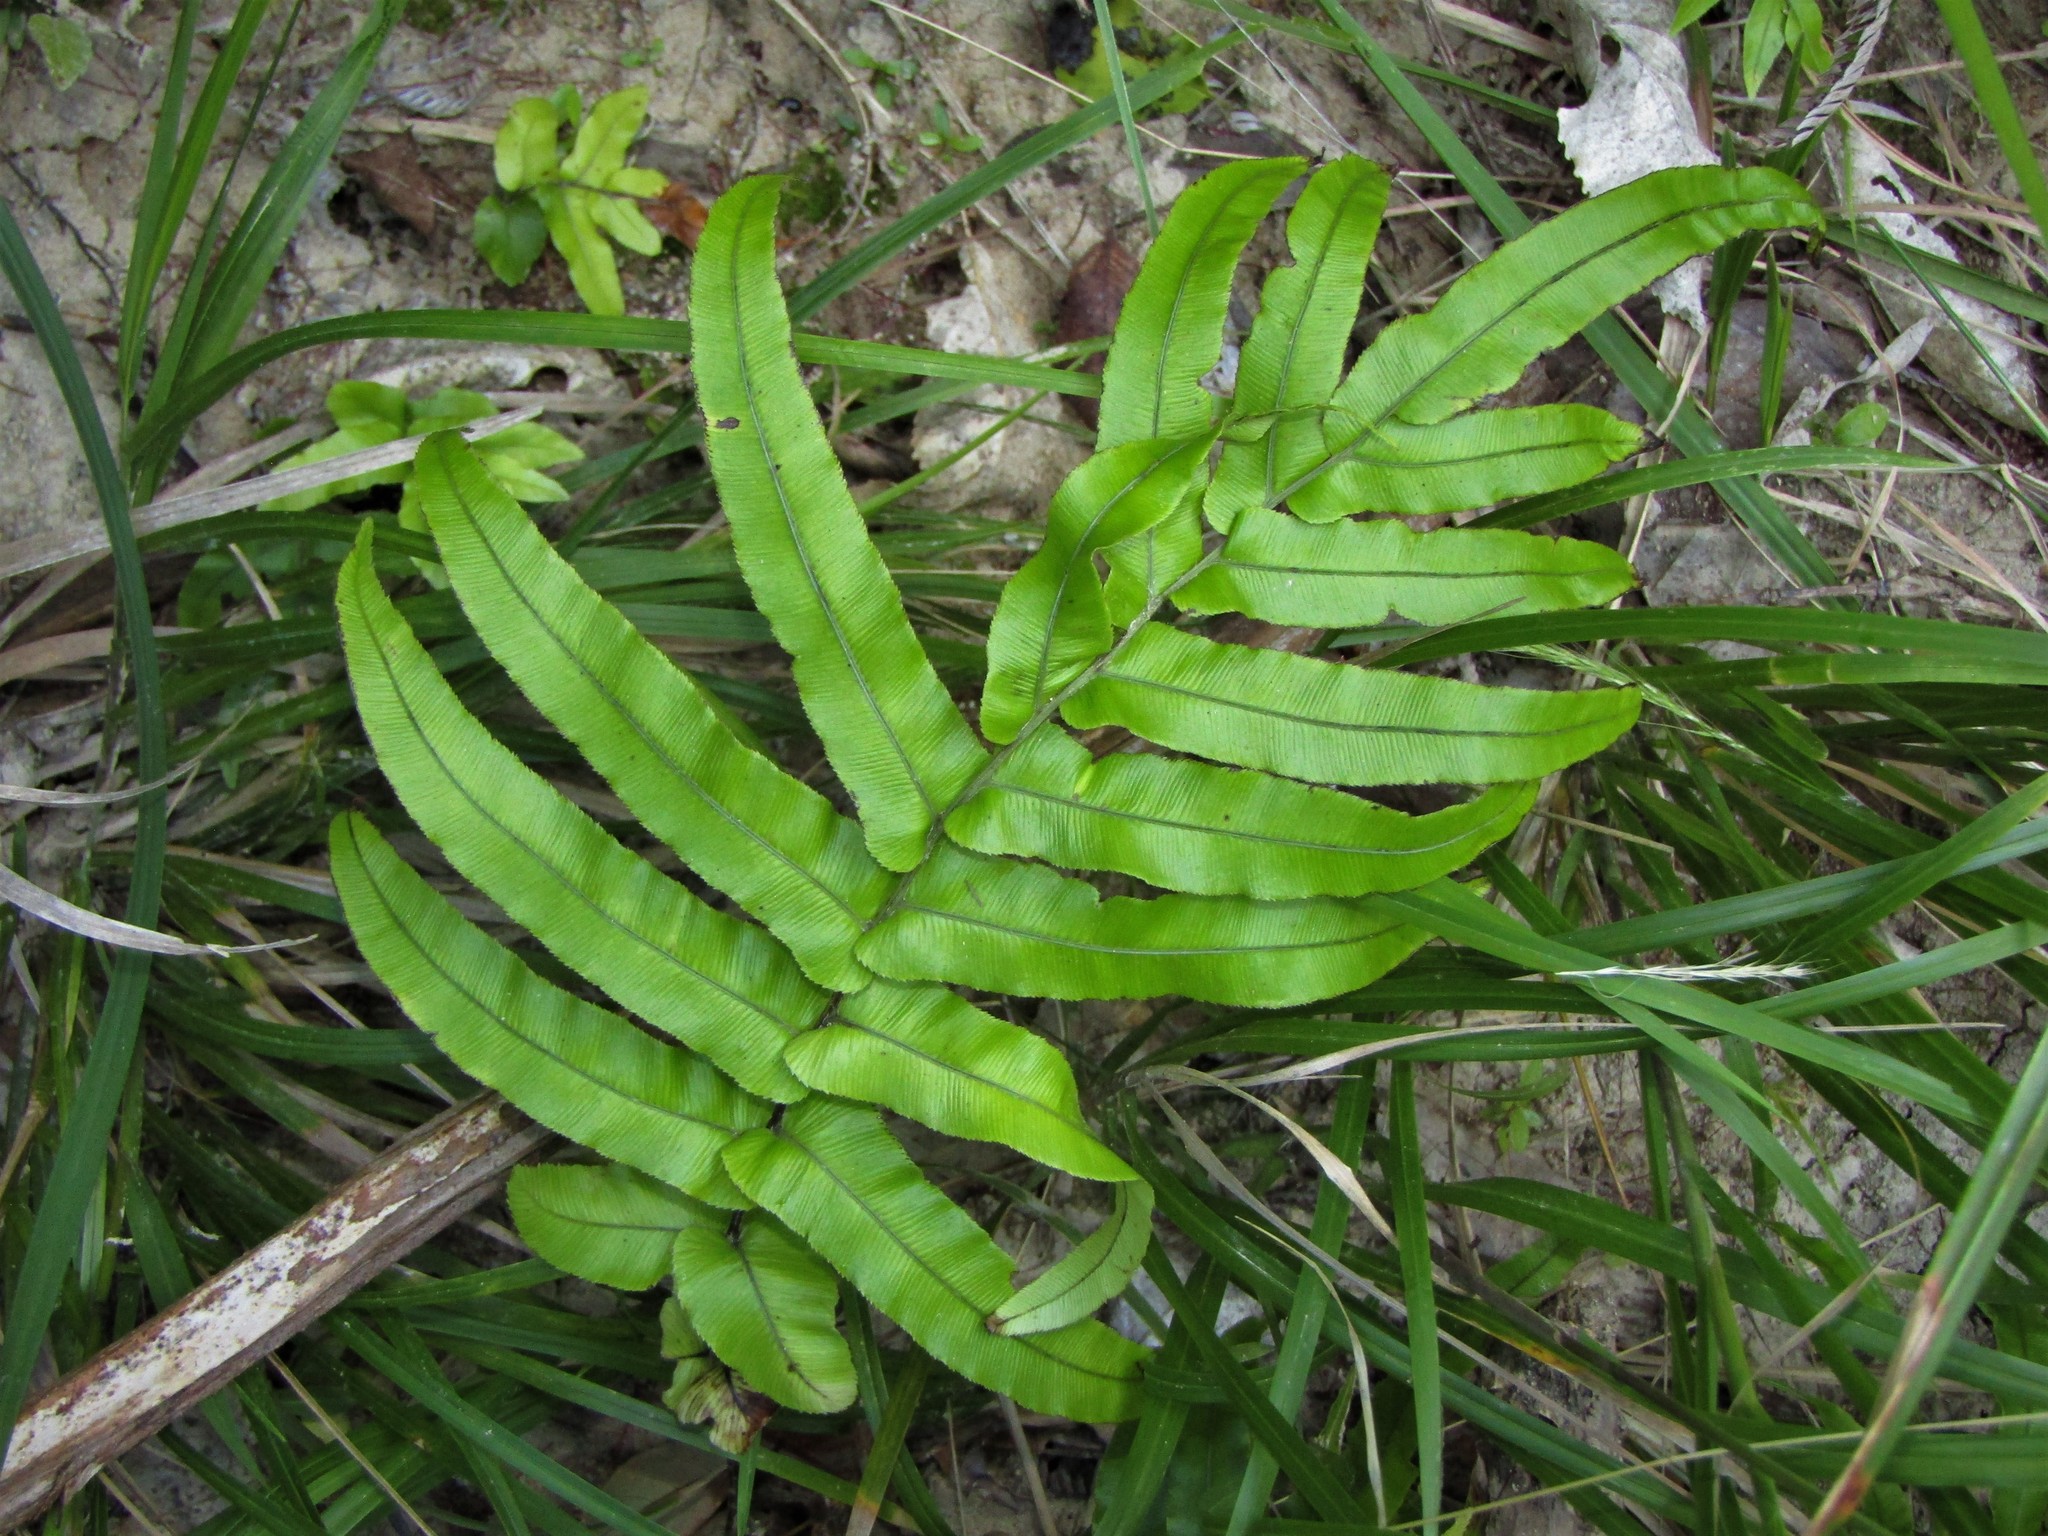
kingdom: Plantae
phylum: Tracheophyta
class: Polypodiopsida
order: Polypodiales
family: Blechnaceae
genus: Parablechnum
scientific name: Parablechnum novae-zelandiae
